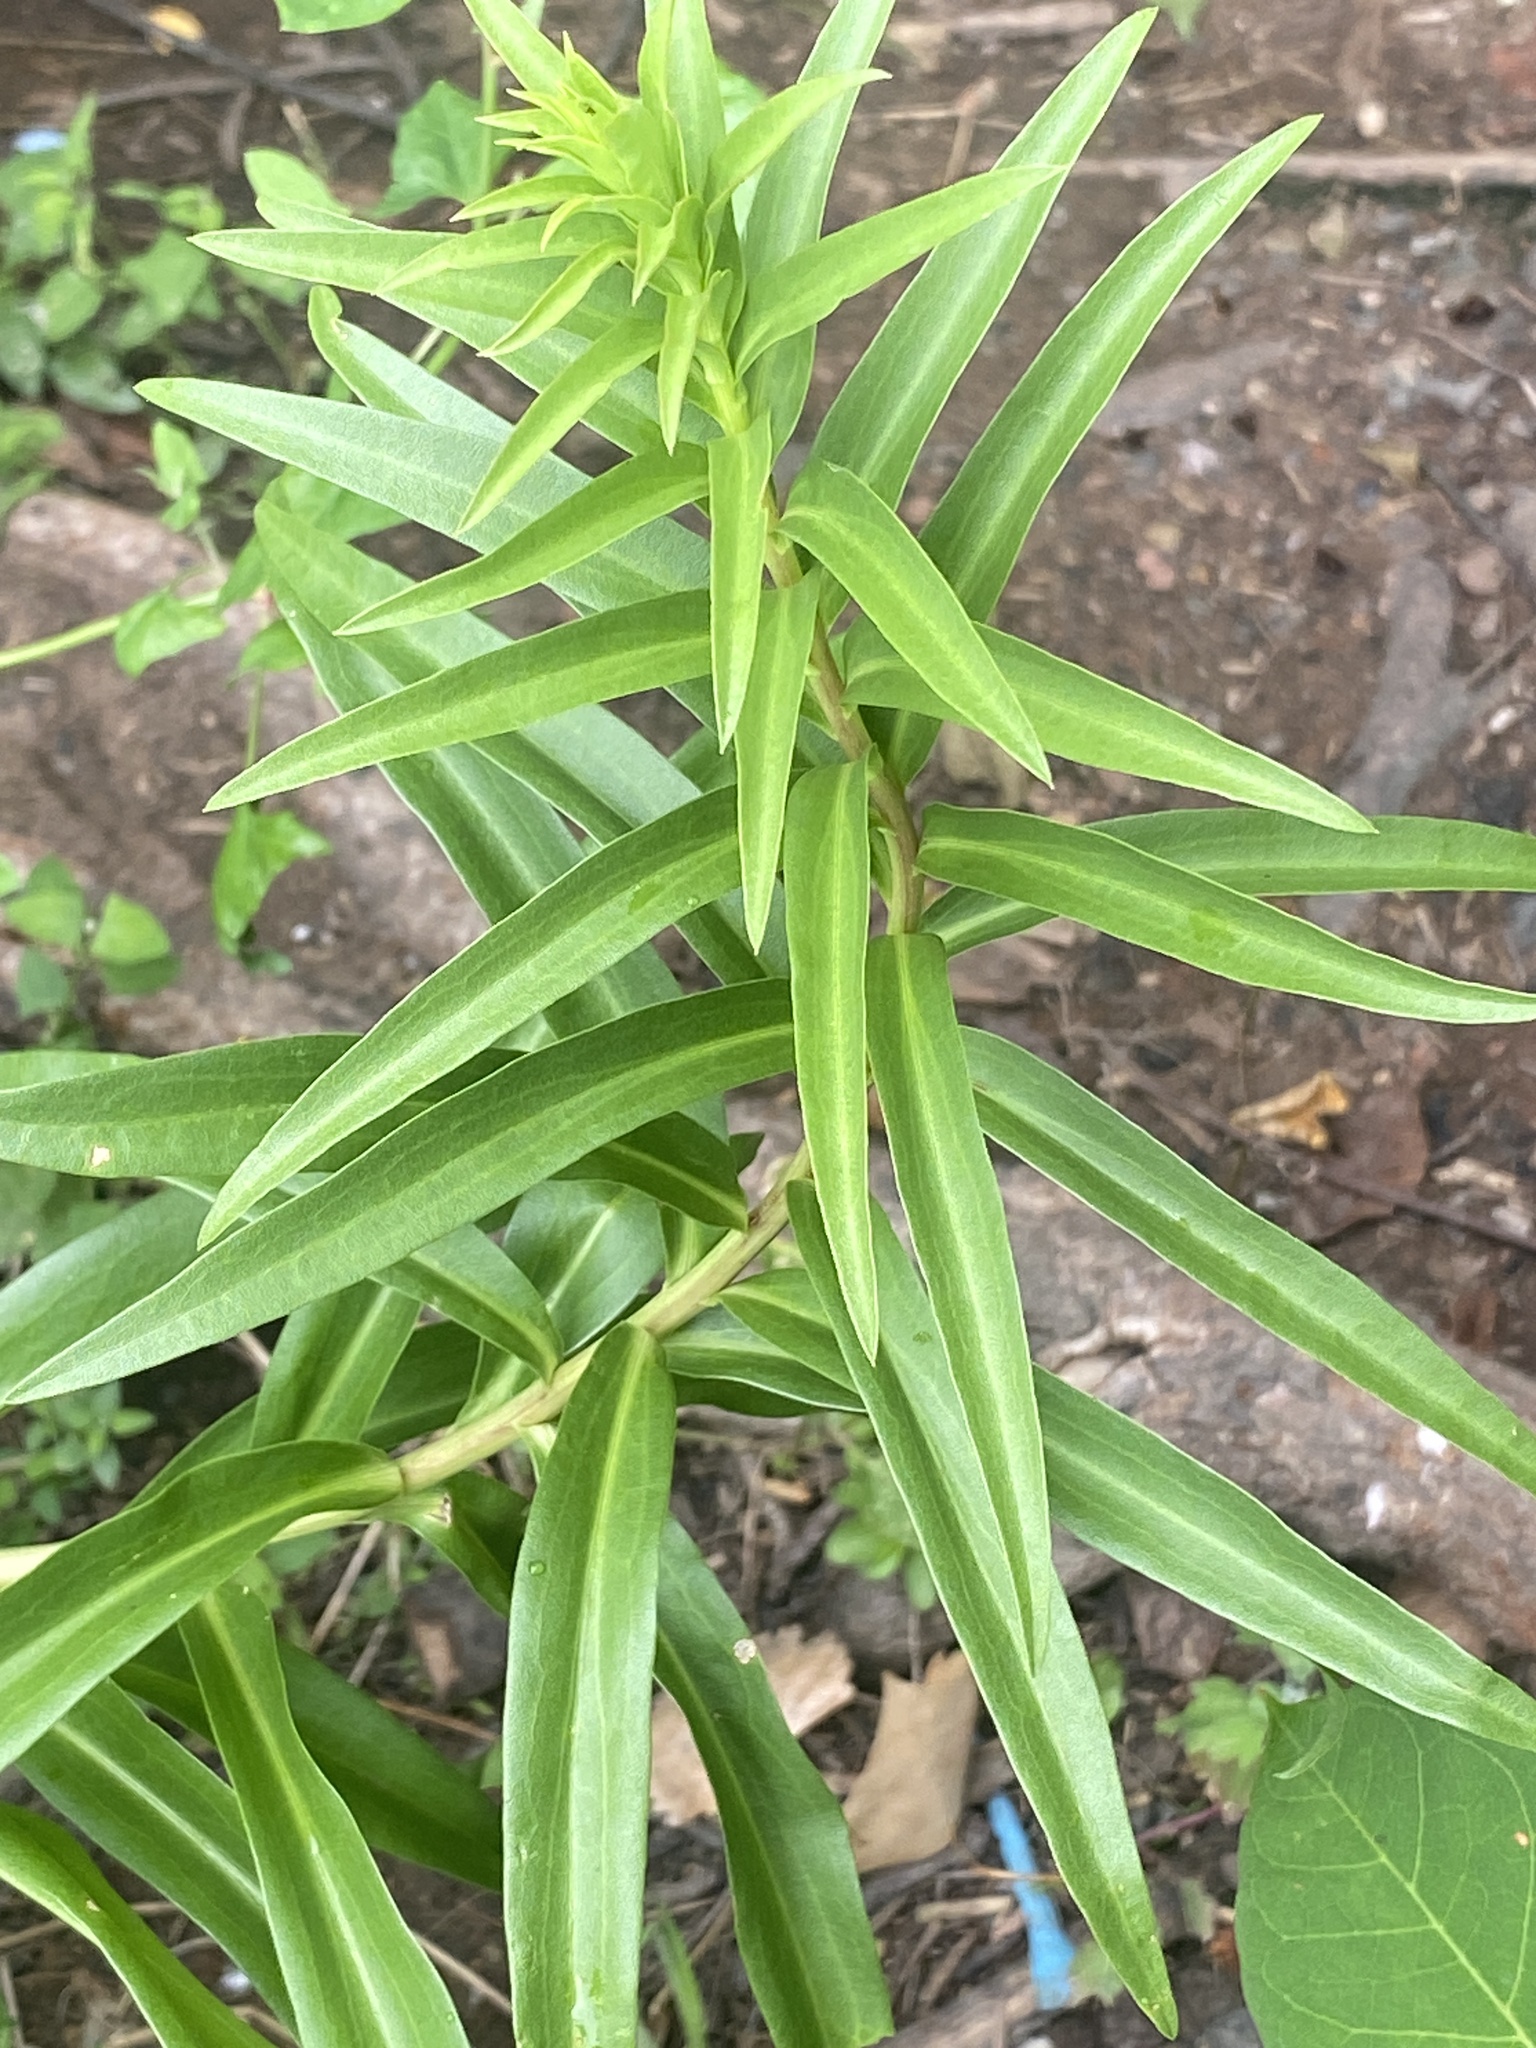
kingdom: Plantae
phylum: Tracheophyta
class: Magnoliopsida
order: Asterales
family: Asteraceae
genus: Solidago
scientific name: Solidago sempervirens
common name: Salt-marsh goldenrod
